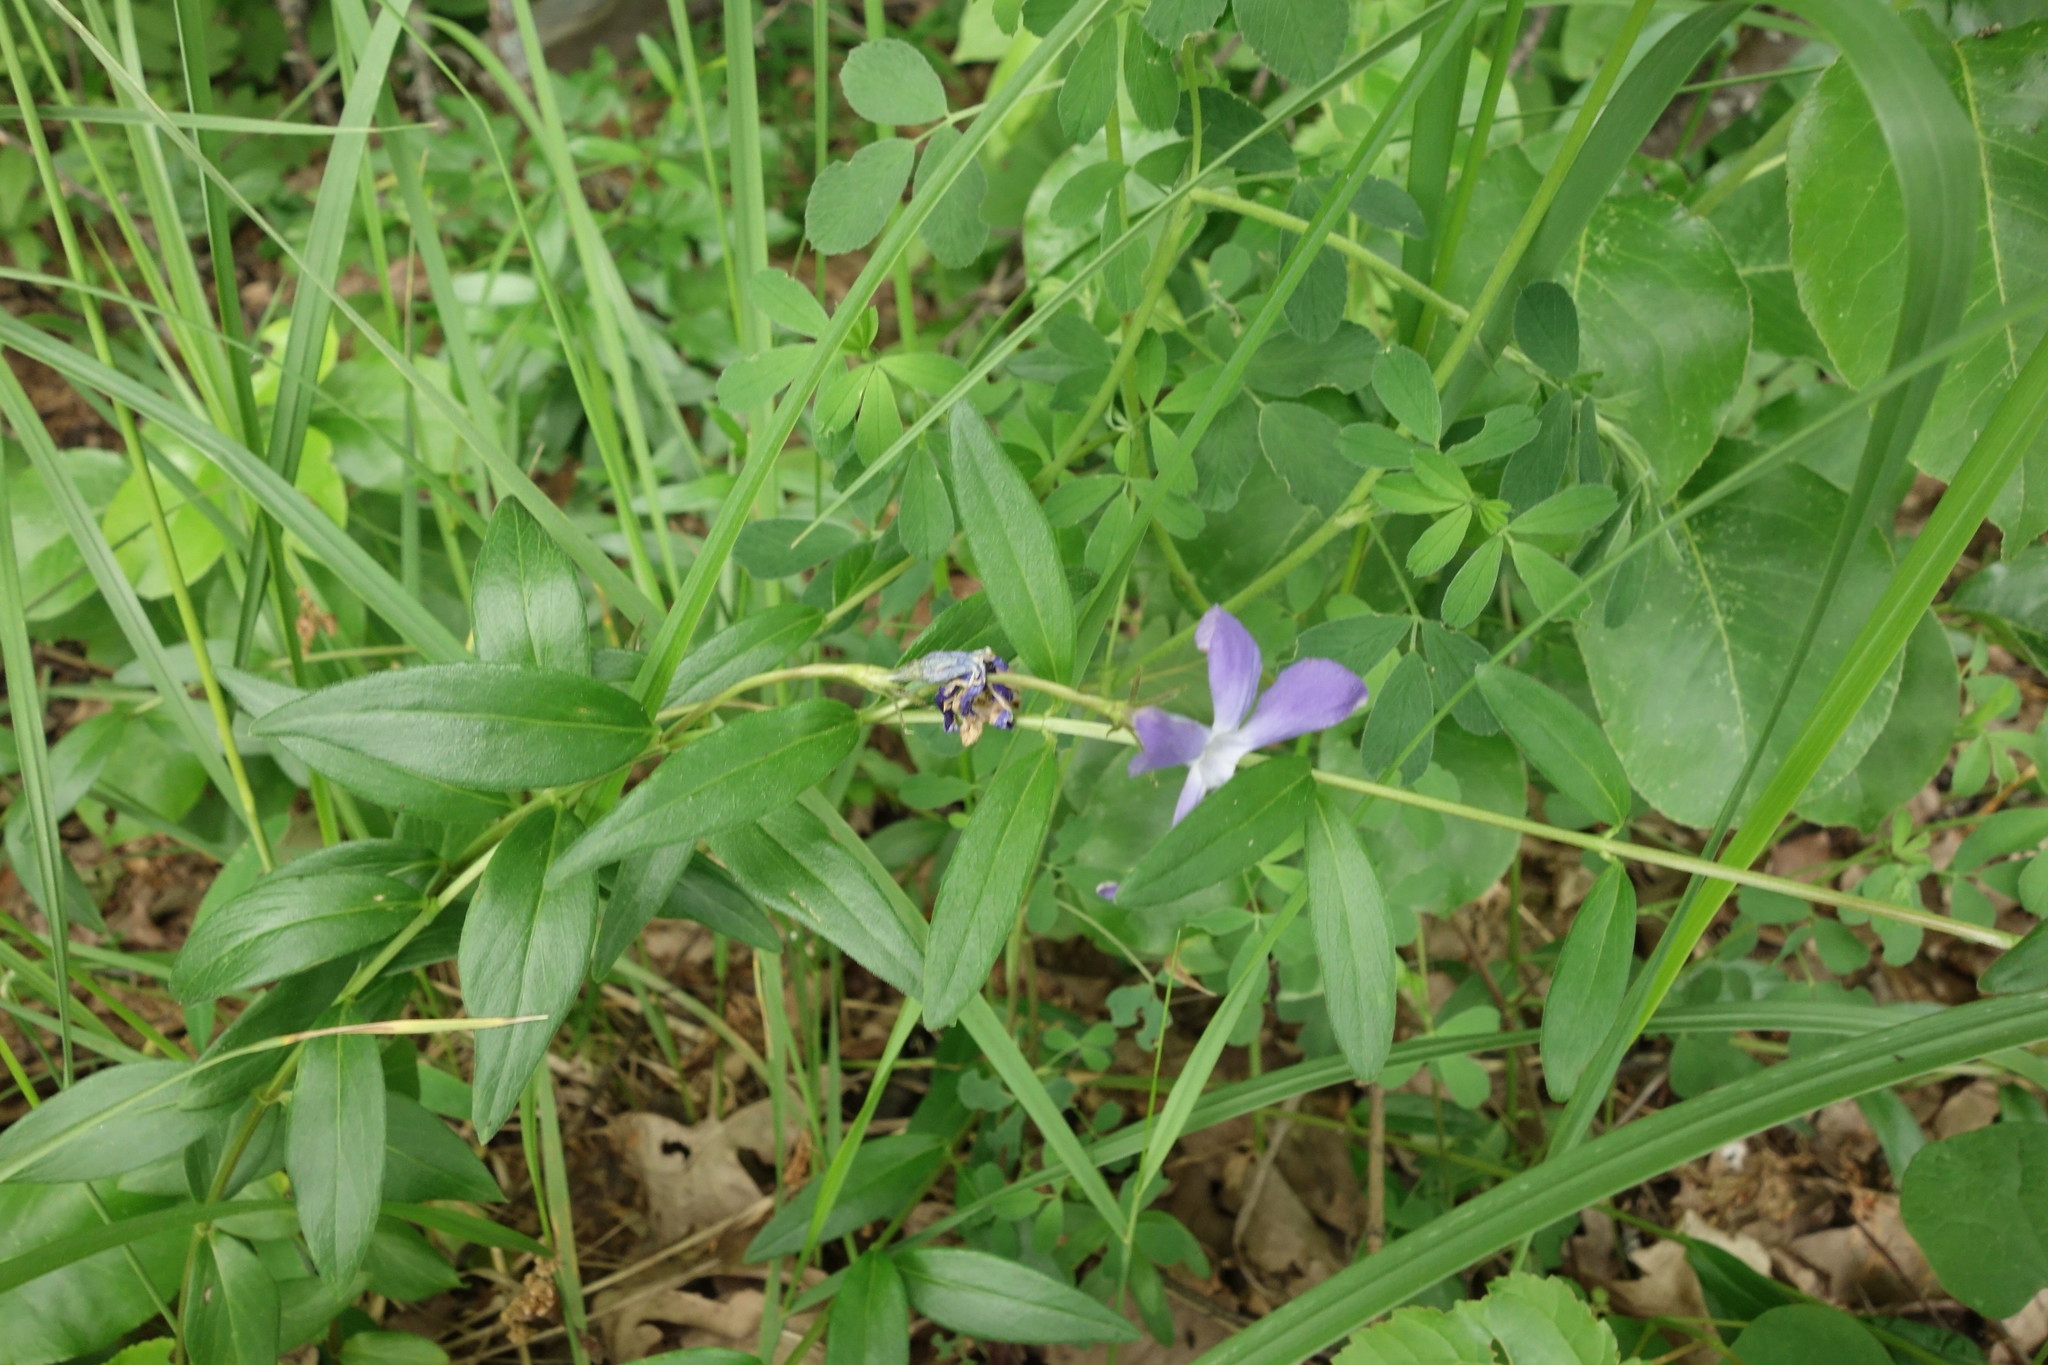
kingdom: Plantae
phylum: Tracheophyta
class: Magnoliopsida
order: Gentianales
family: Apocynaceae
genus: Vinca
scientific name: Vinca herbacea
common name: Herbaceous periwinkle
